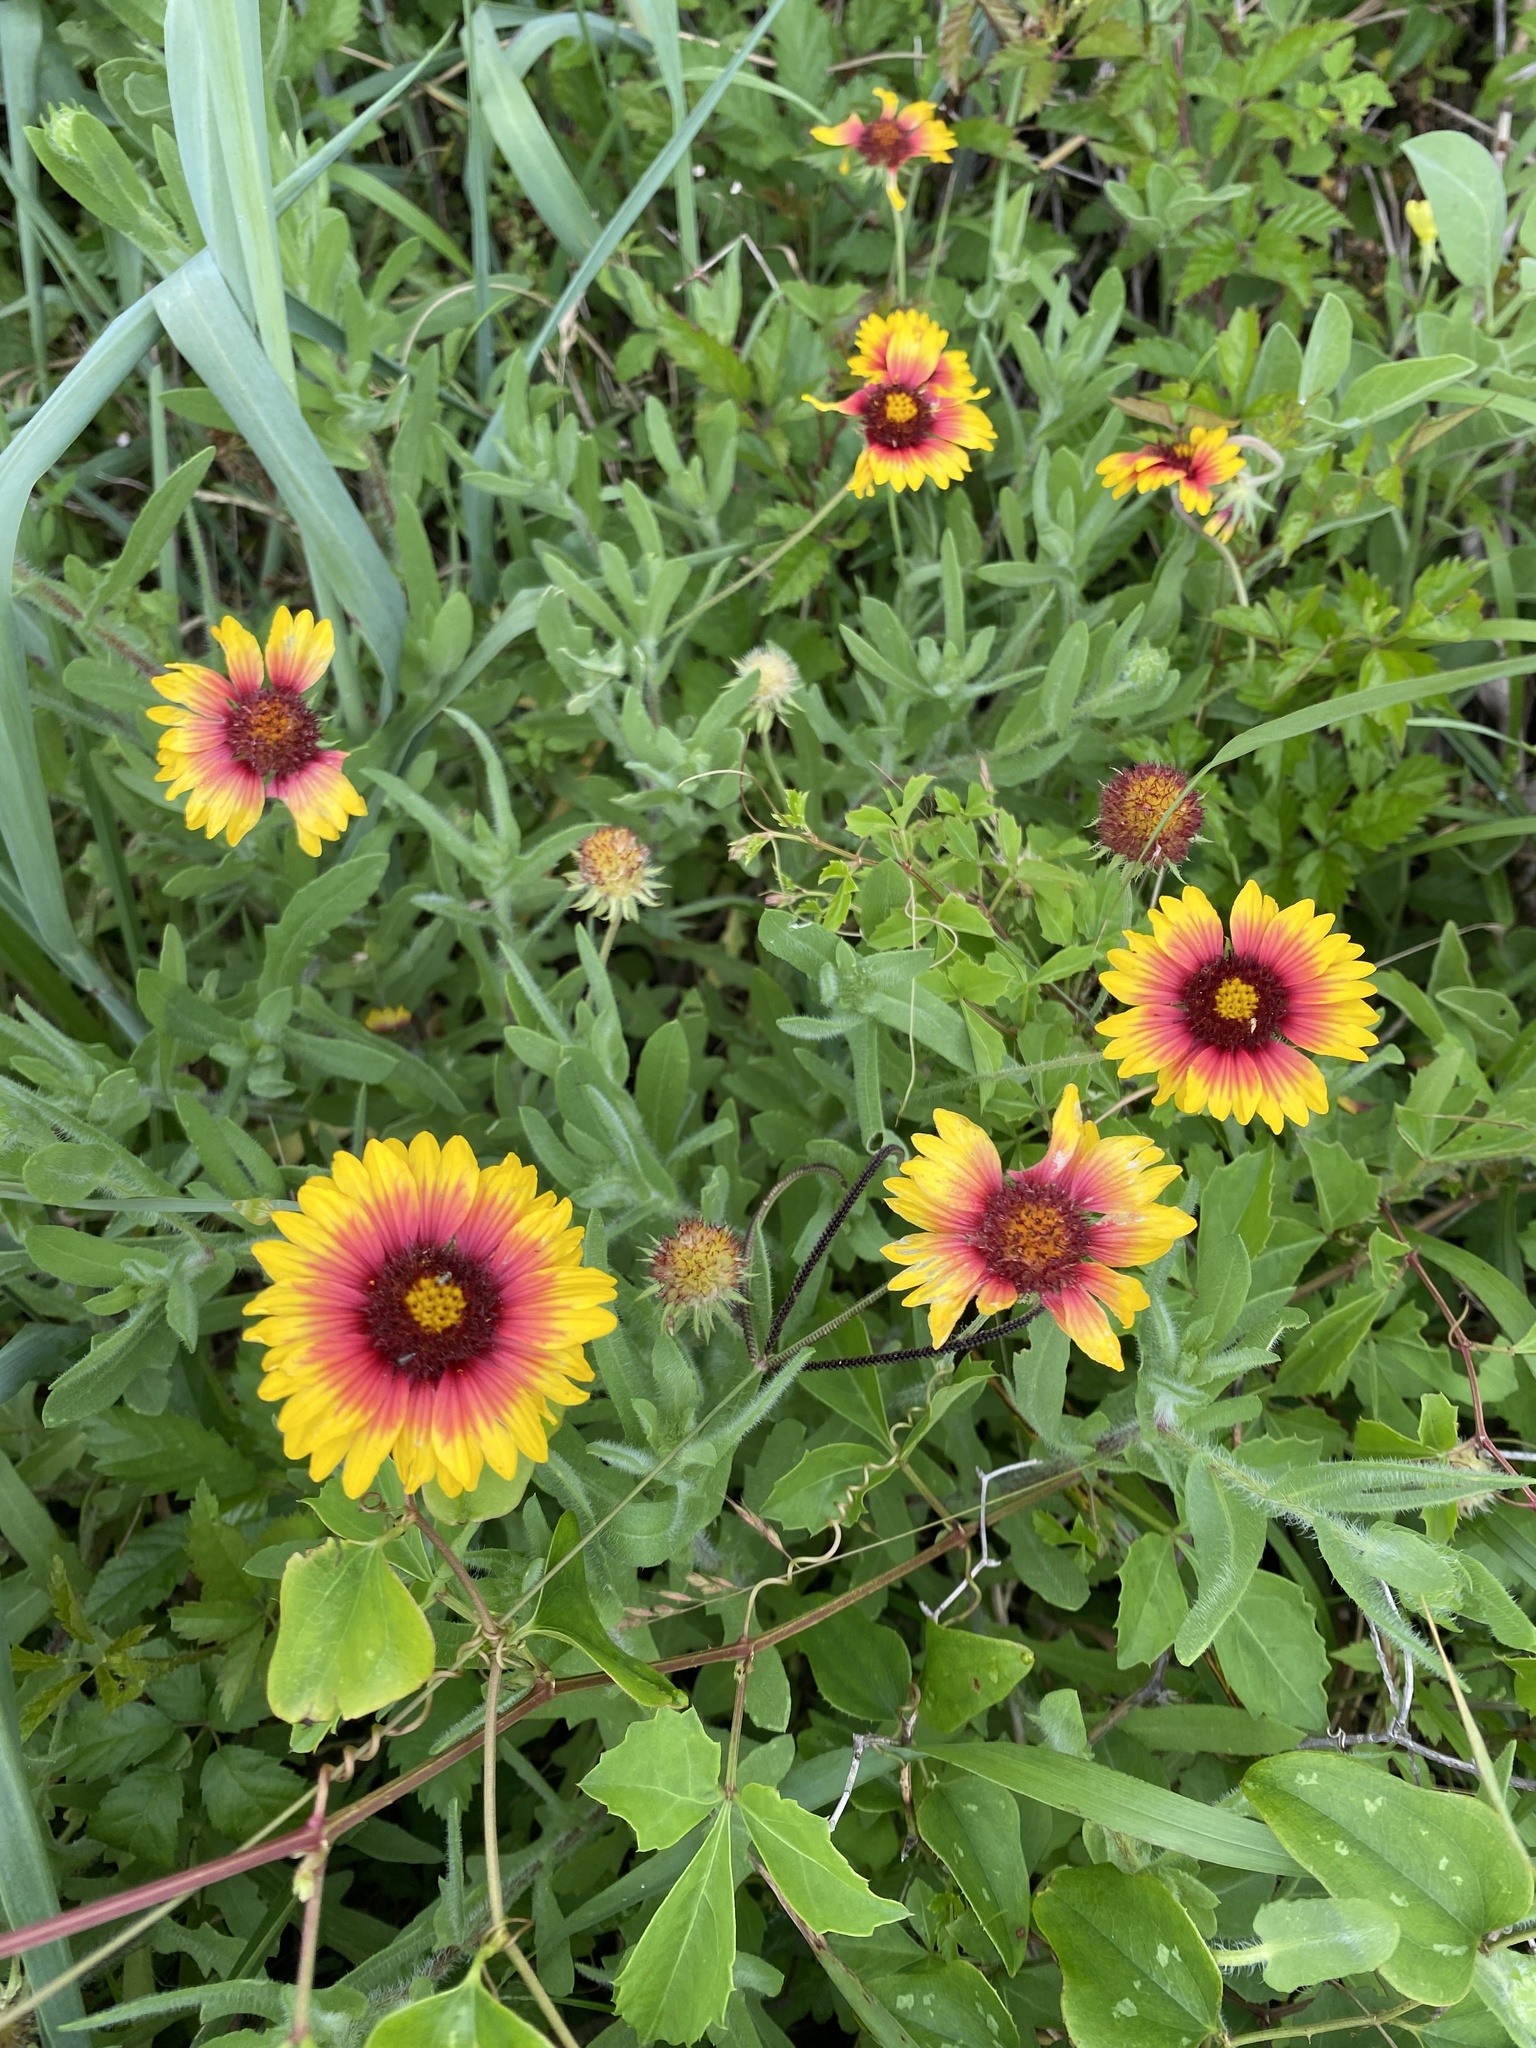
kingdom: Plantae
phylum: Tracheophyta
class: Magnoliopsida
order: Asterales
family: Asteraceae
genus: Gaillardia
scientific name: Gaillardia pulchella
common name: Firewheel
